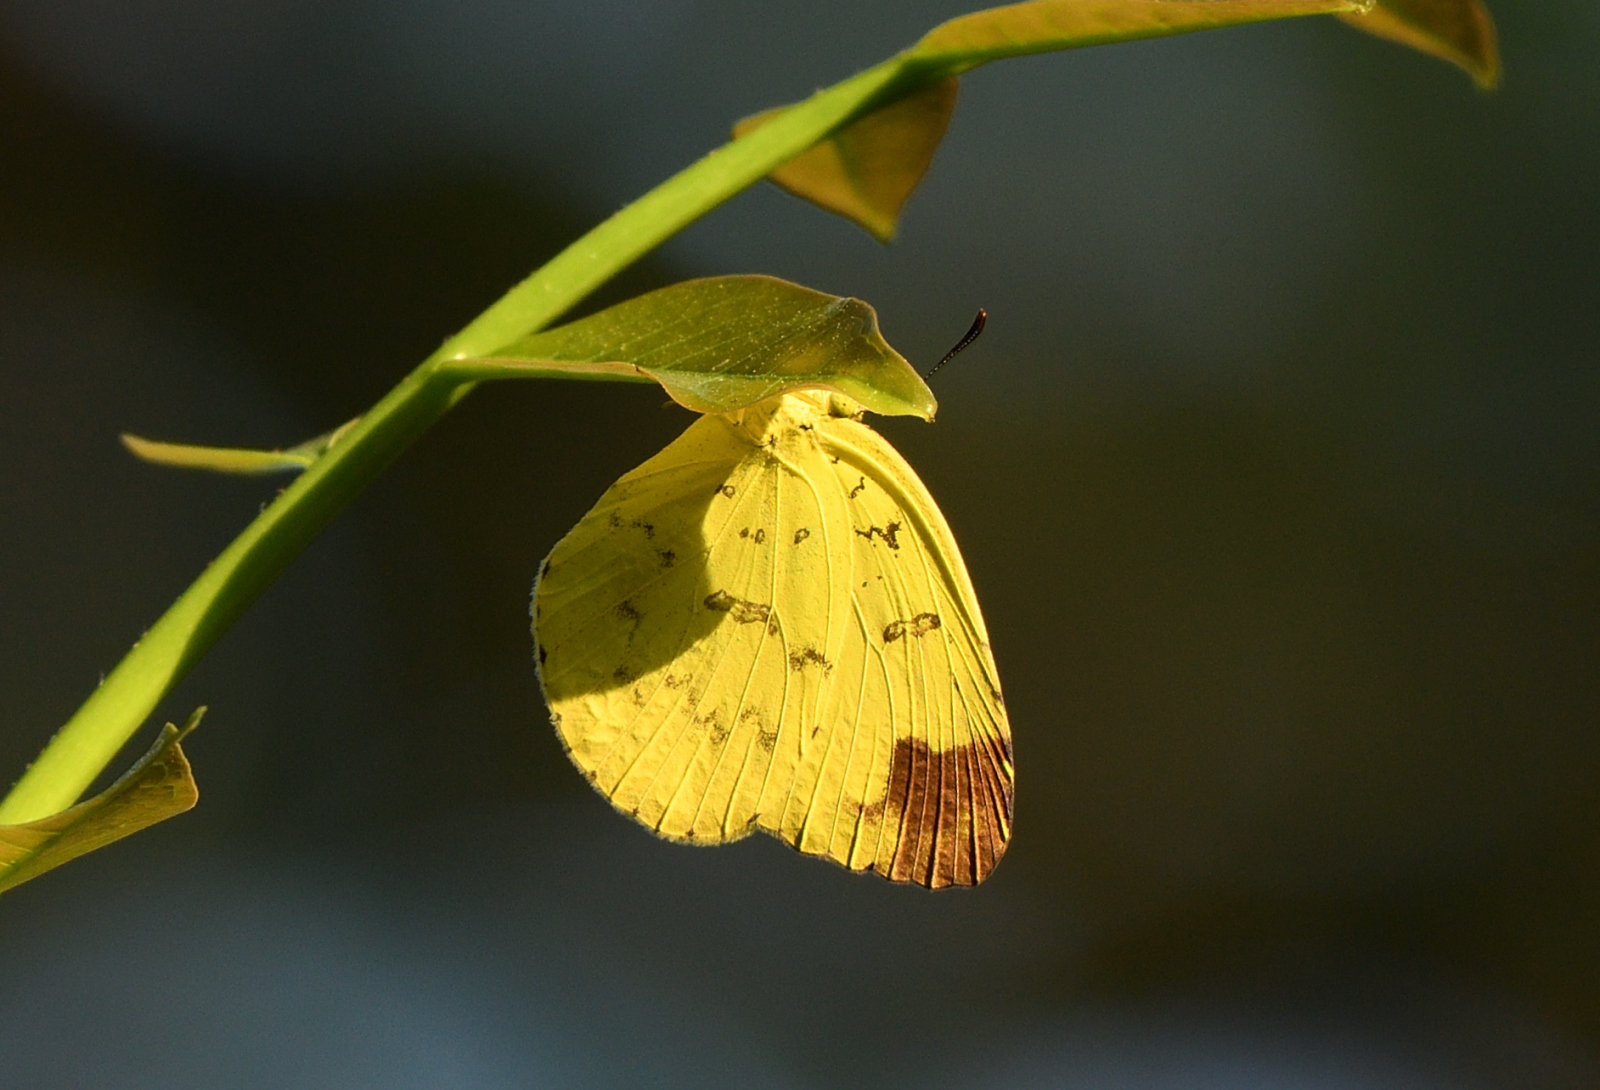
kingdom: Animalia
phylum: Arthropoda
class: Insecta
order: Lepidoptera
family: Pieridae
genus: Eurema
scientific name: Eurema blanda
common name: Three-spot grass yellow
